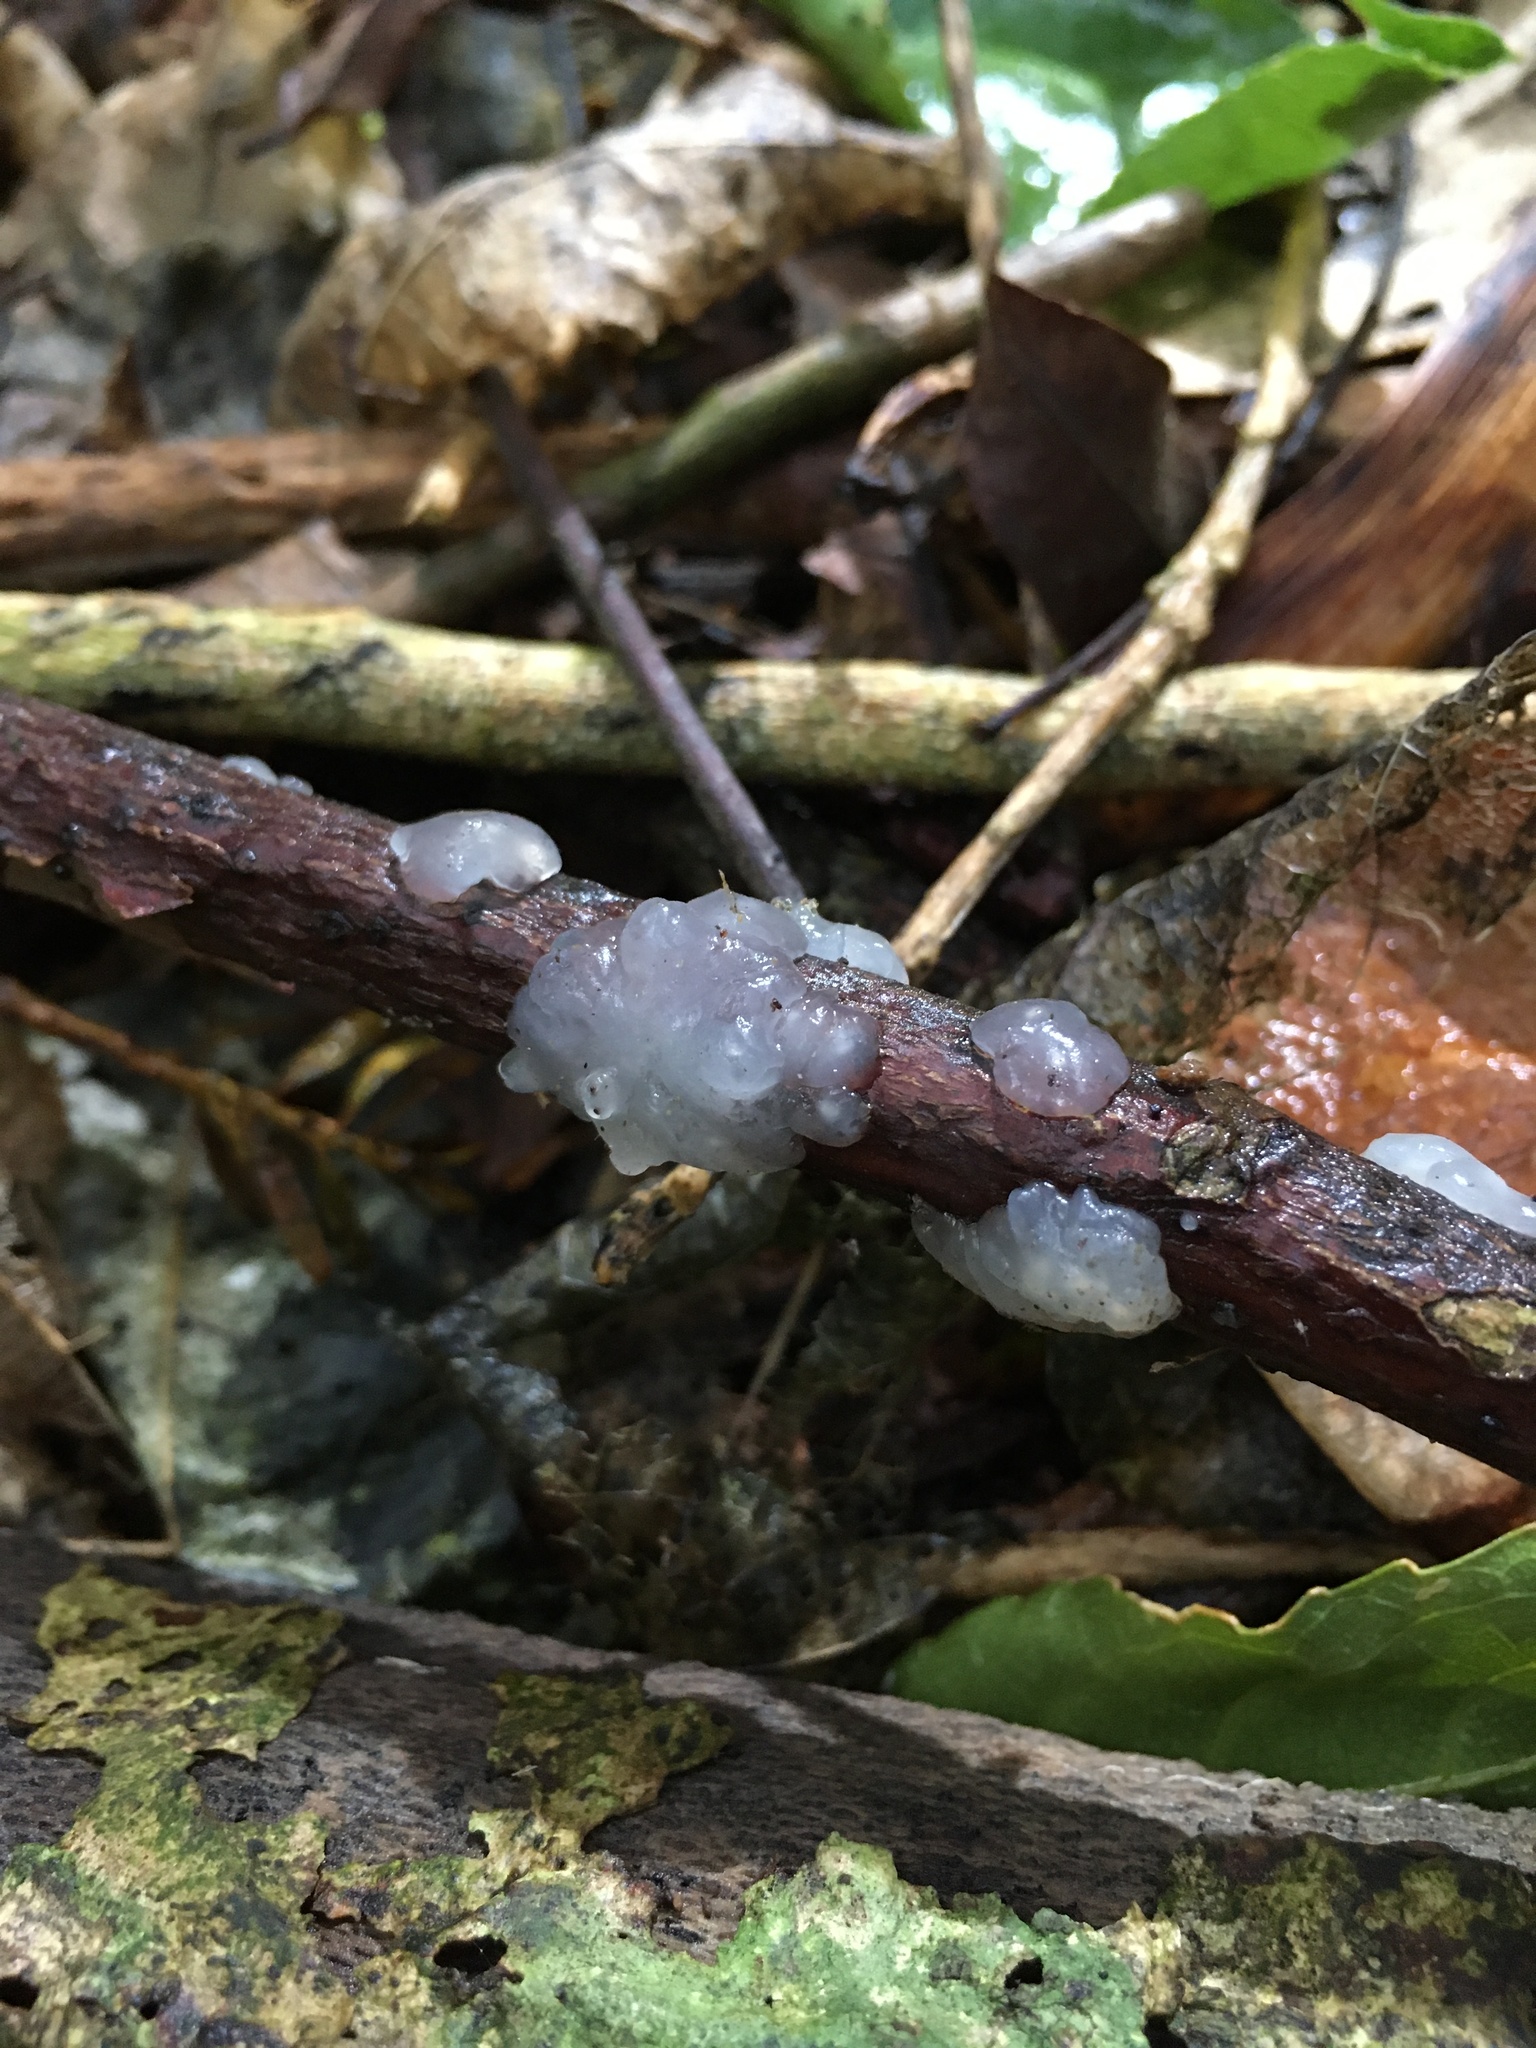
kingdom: Fungi
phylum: Basidiomycota
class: Agaricomycetes
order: Auriculariales
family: Hyaloriaceae
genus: Myxarium
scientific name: Myxarium nucleatum
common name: Crystal brain fungus
